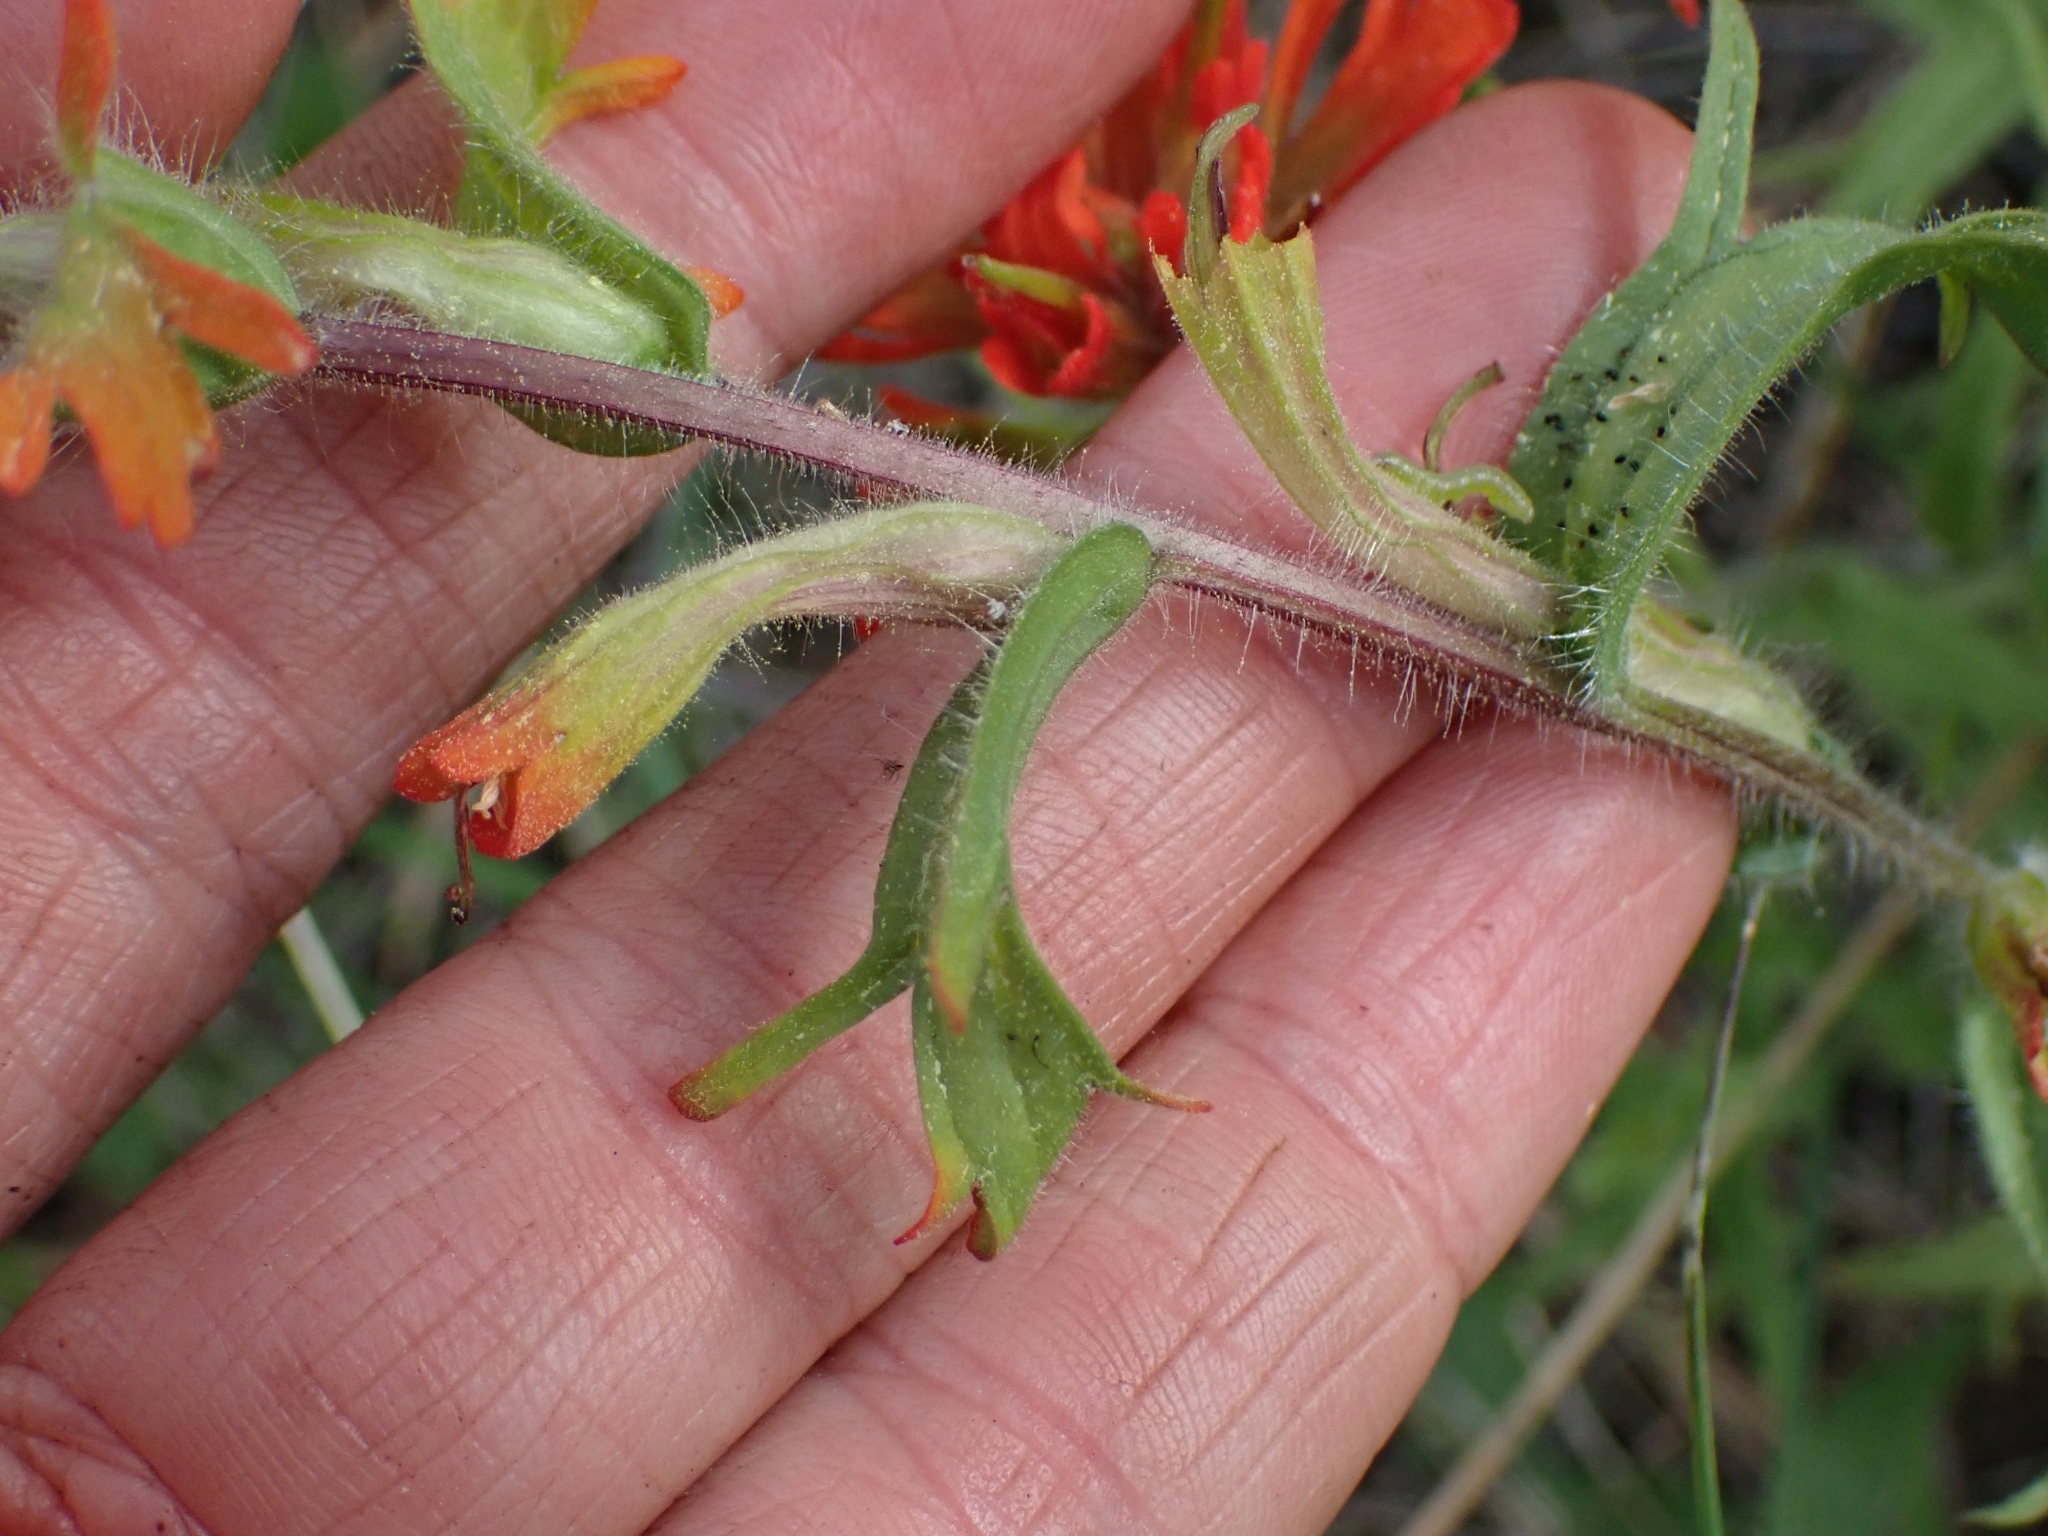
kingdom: Plantae
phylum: Tracheophyta
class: Magnoliopsida
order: Lamiales
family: Orobanchaceae
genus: Castilleja
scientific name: Castilleja hispida
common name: Bristly paintbrush
